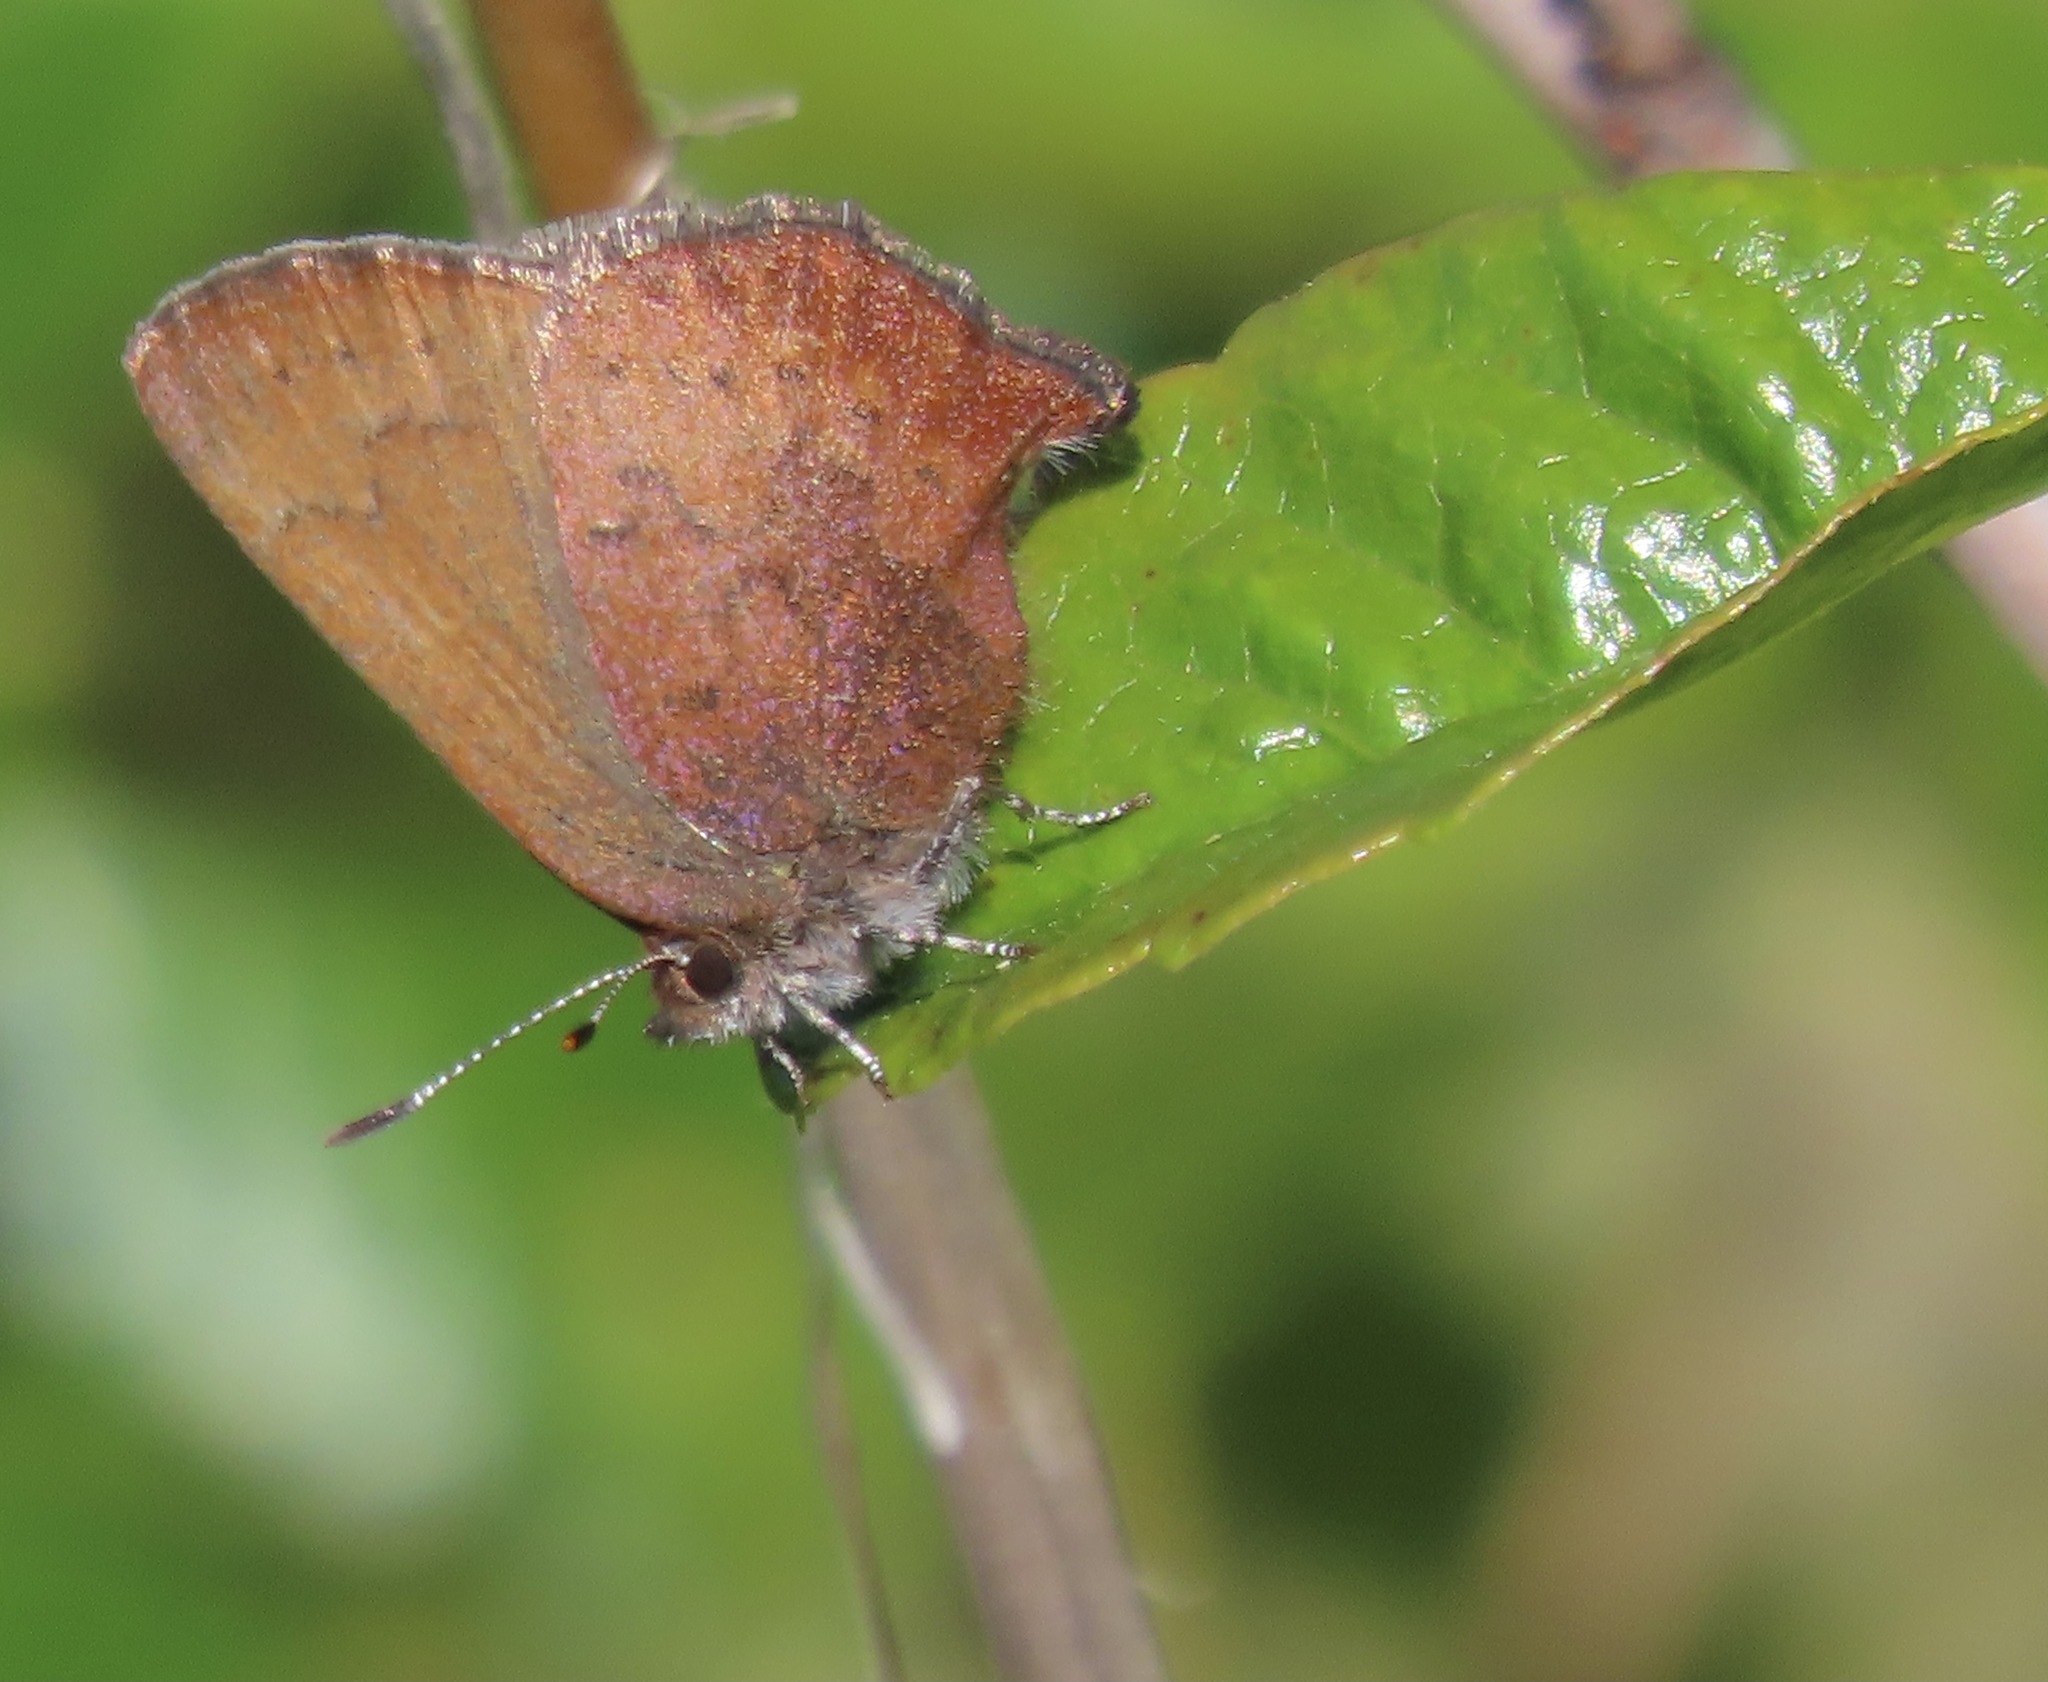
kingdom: Animalia
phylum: Arthropoda
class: Insecta
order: Lepidoptera
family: Lycaenidae
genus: Incisalia
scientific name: Incisalia irioides
